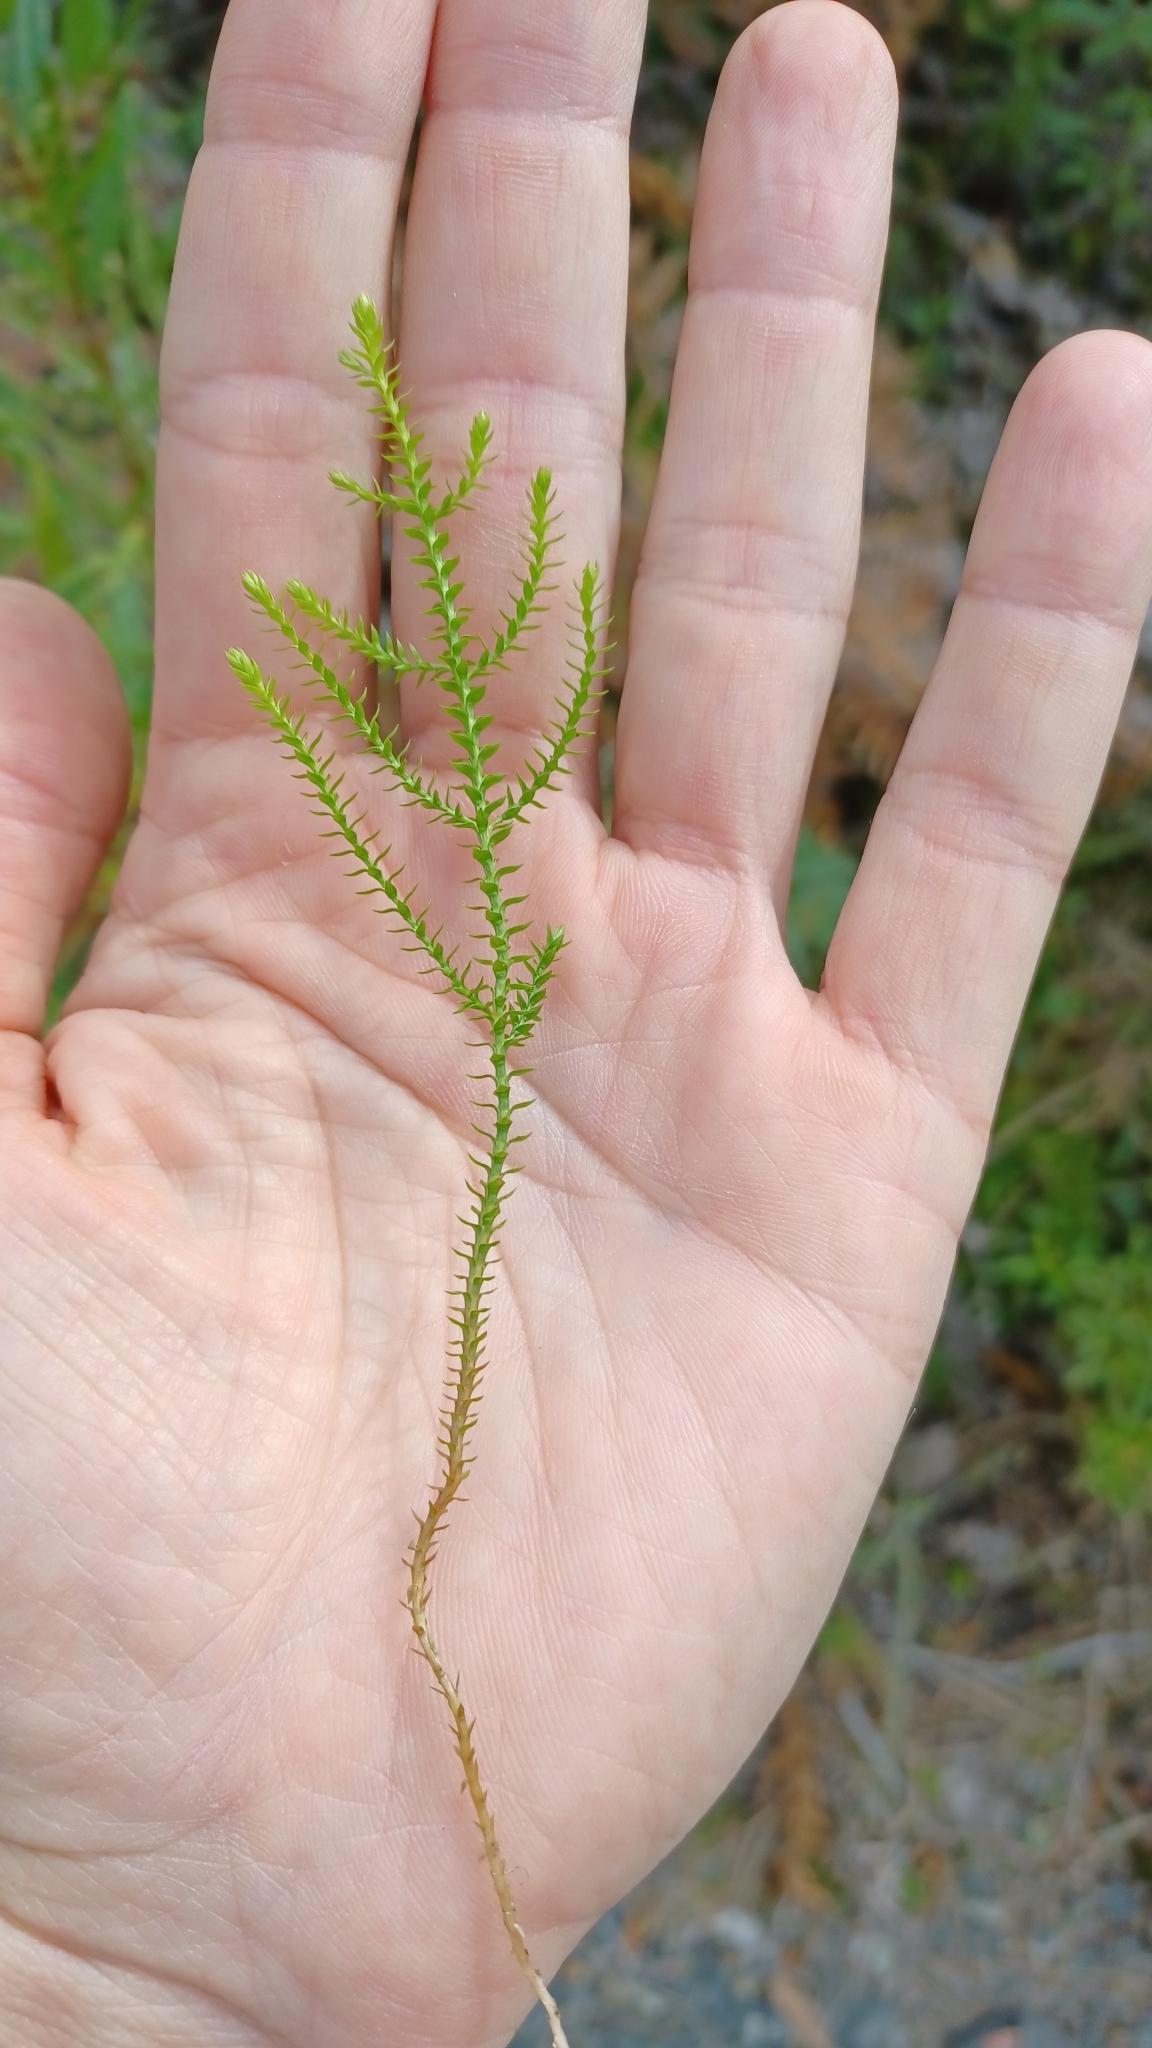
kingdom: Plantae
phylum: Tracheophyta
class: Lycopodiopsida
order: Selaginellales
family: Selaginellaceae
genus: Selaginella
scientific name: Selaginella uliginosa
